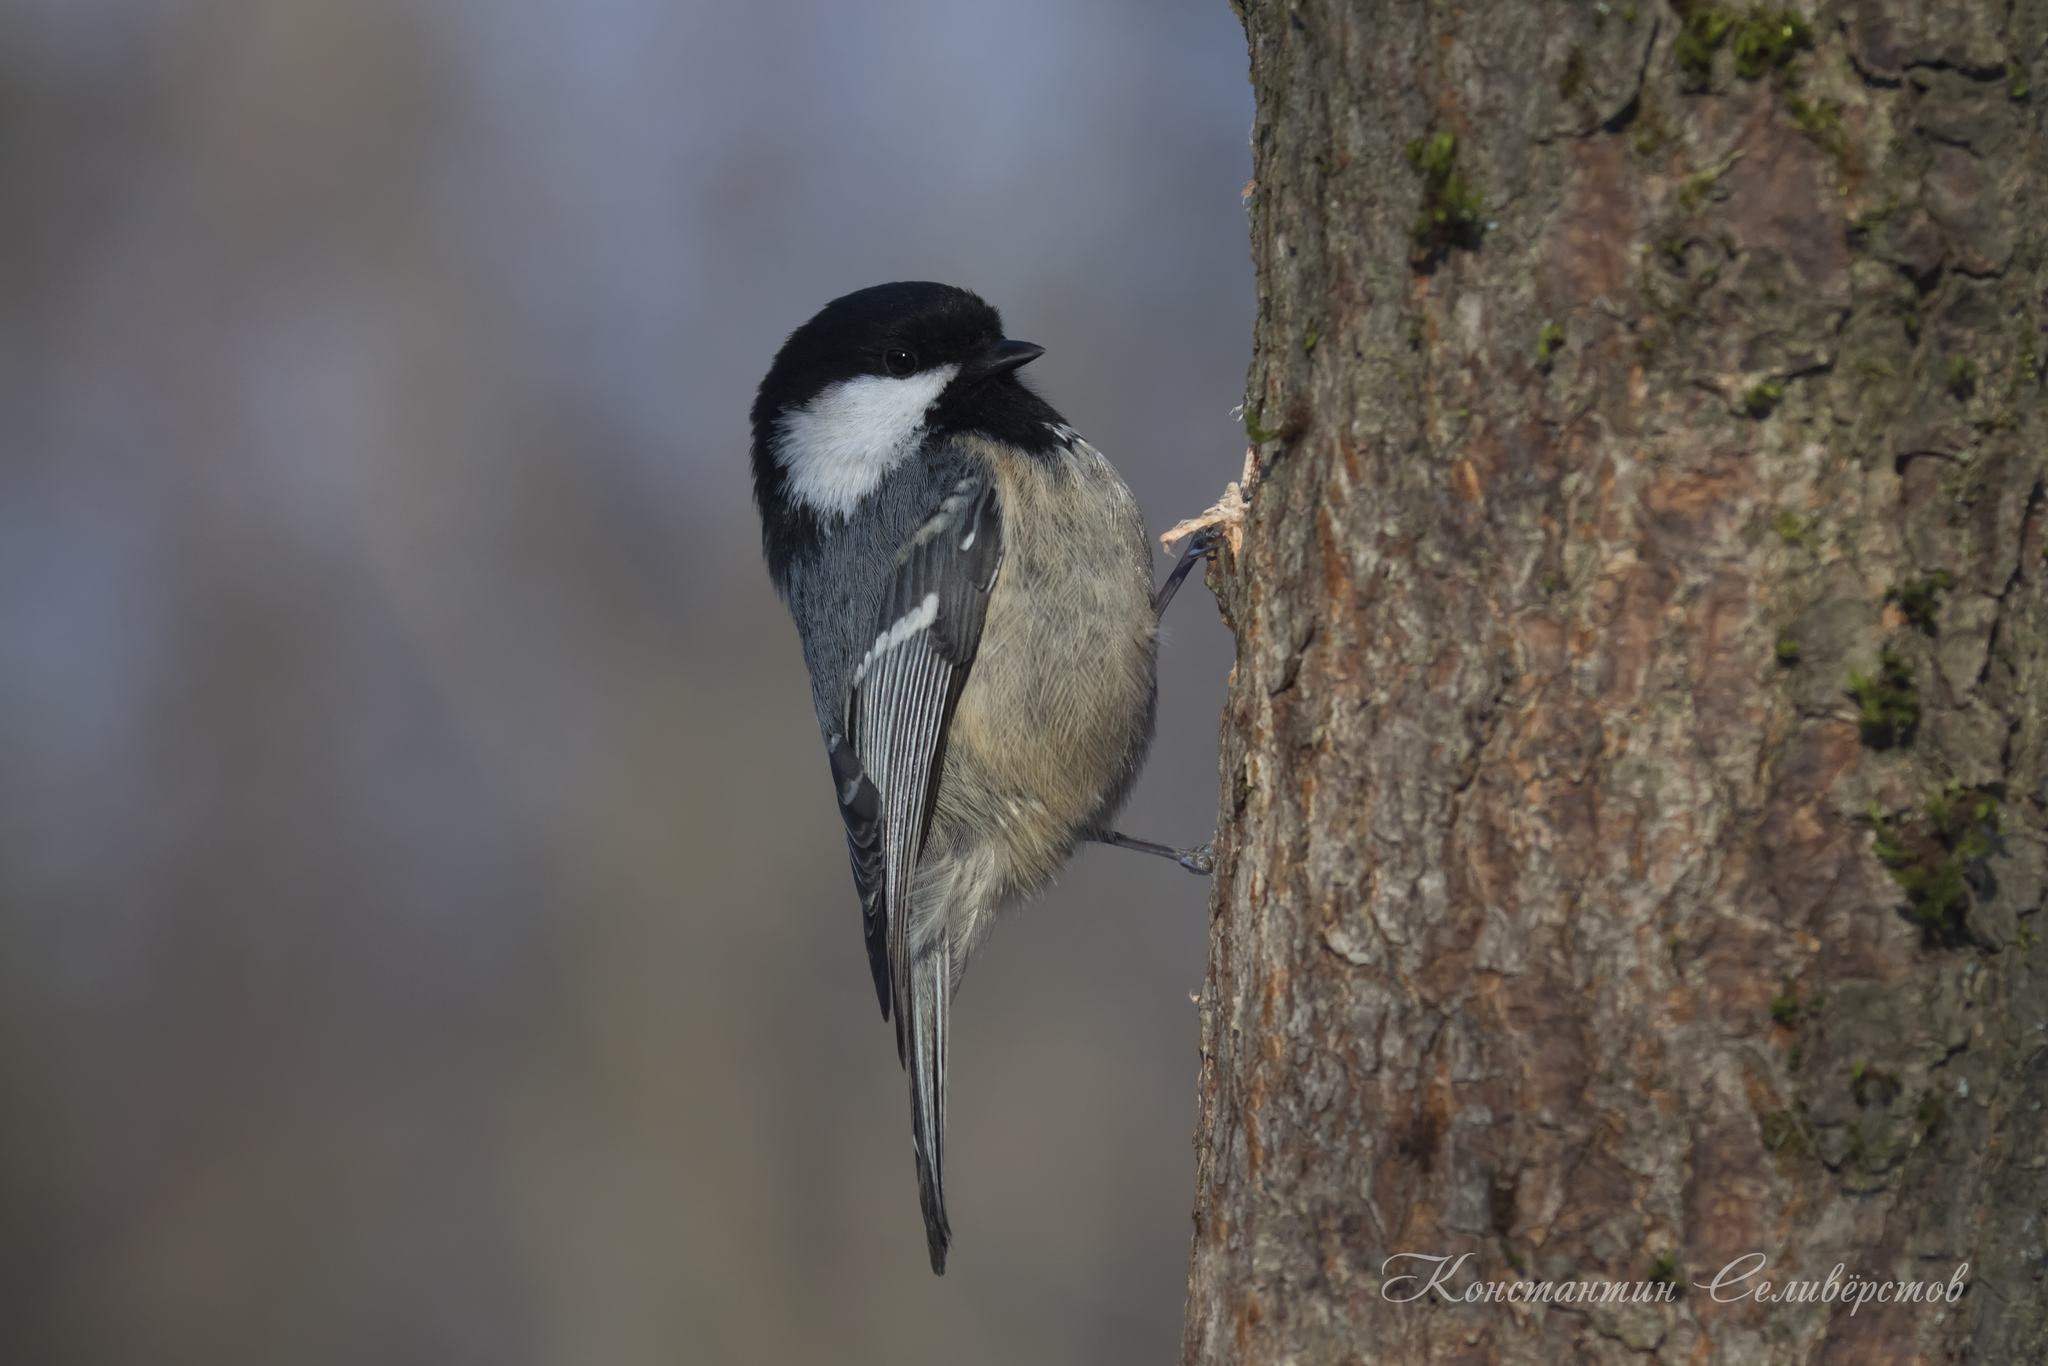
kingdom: Animalia
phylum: Chordata
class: Aves
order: Passeriformes
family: Paridae
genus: Periparus
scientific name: Periparus ater
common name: Coal tit
